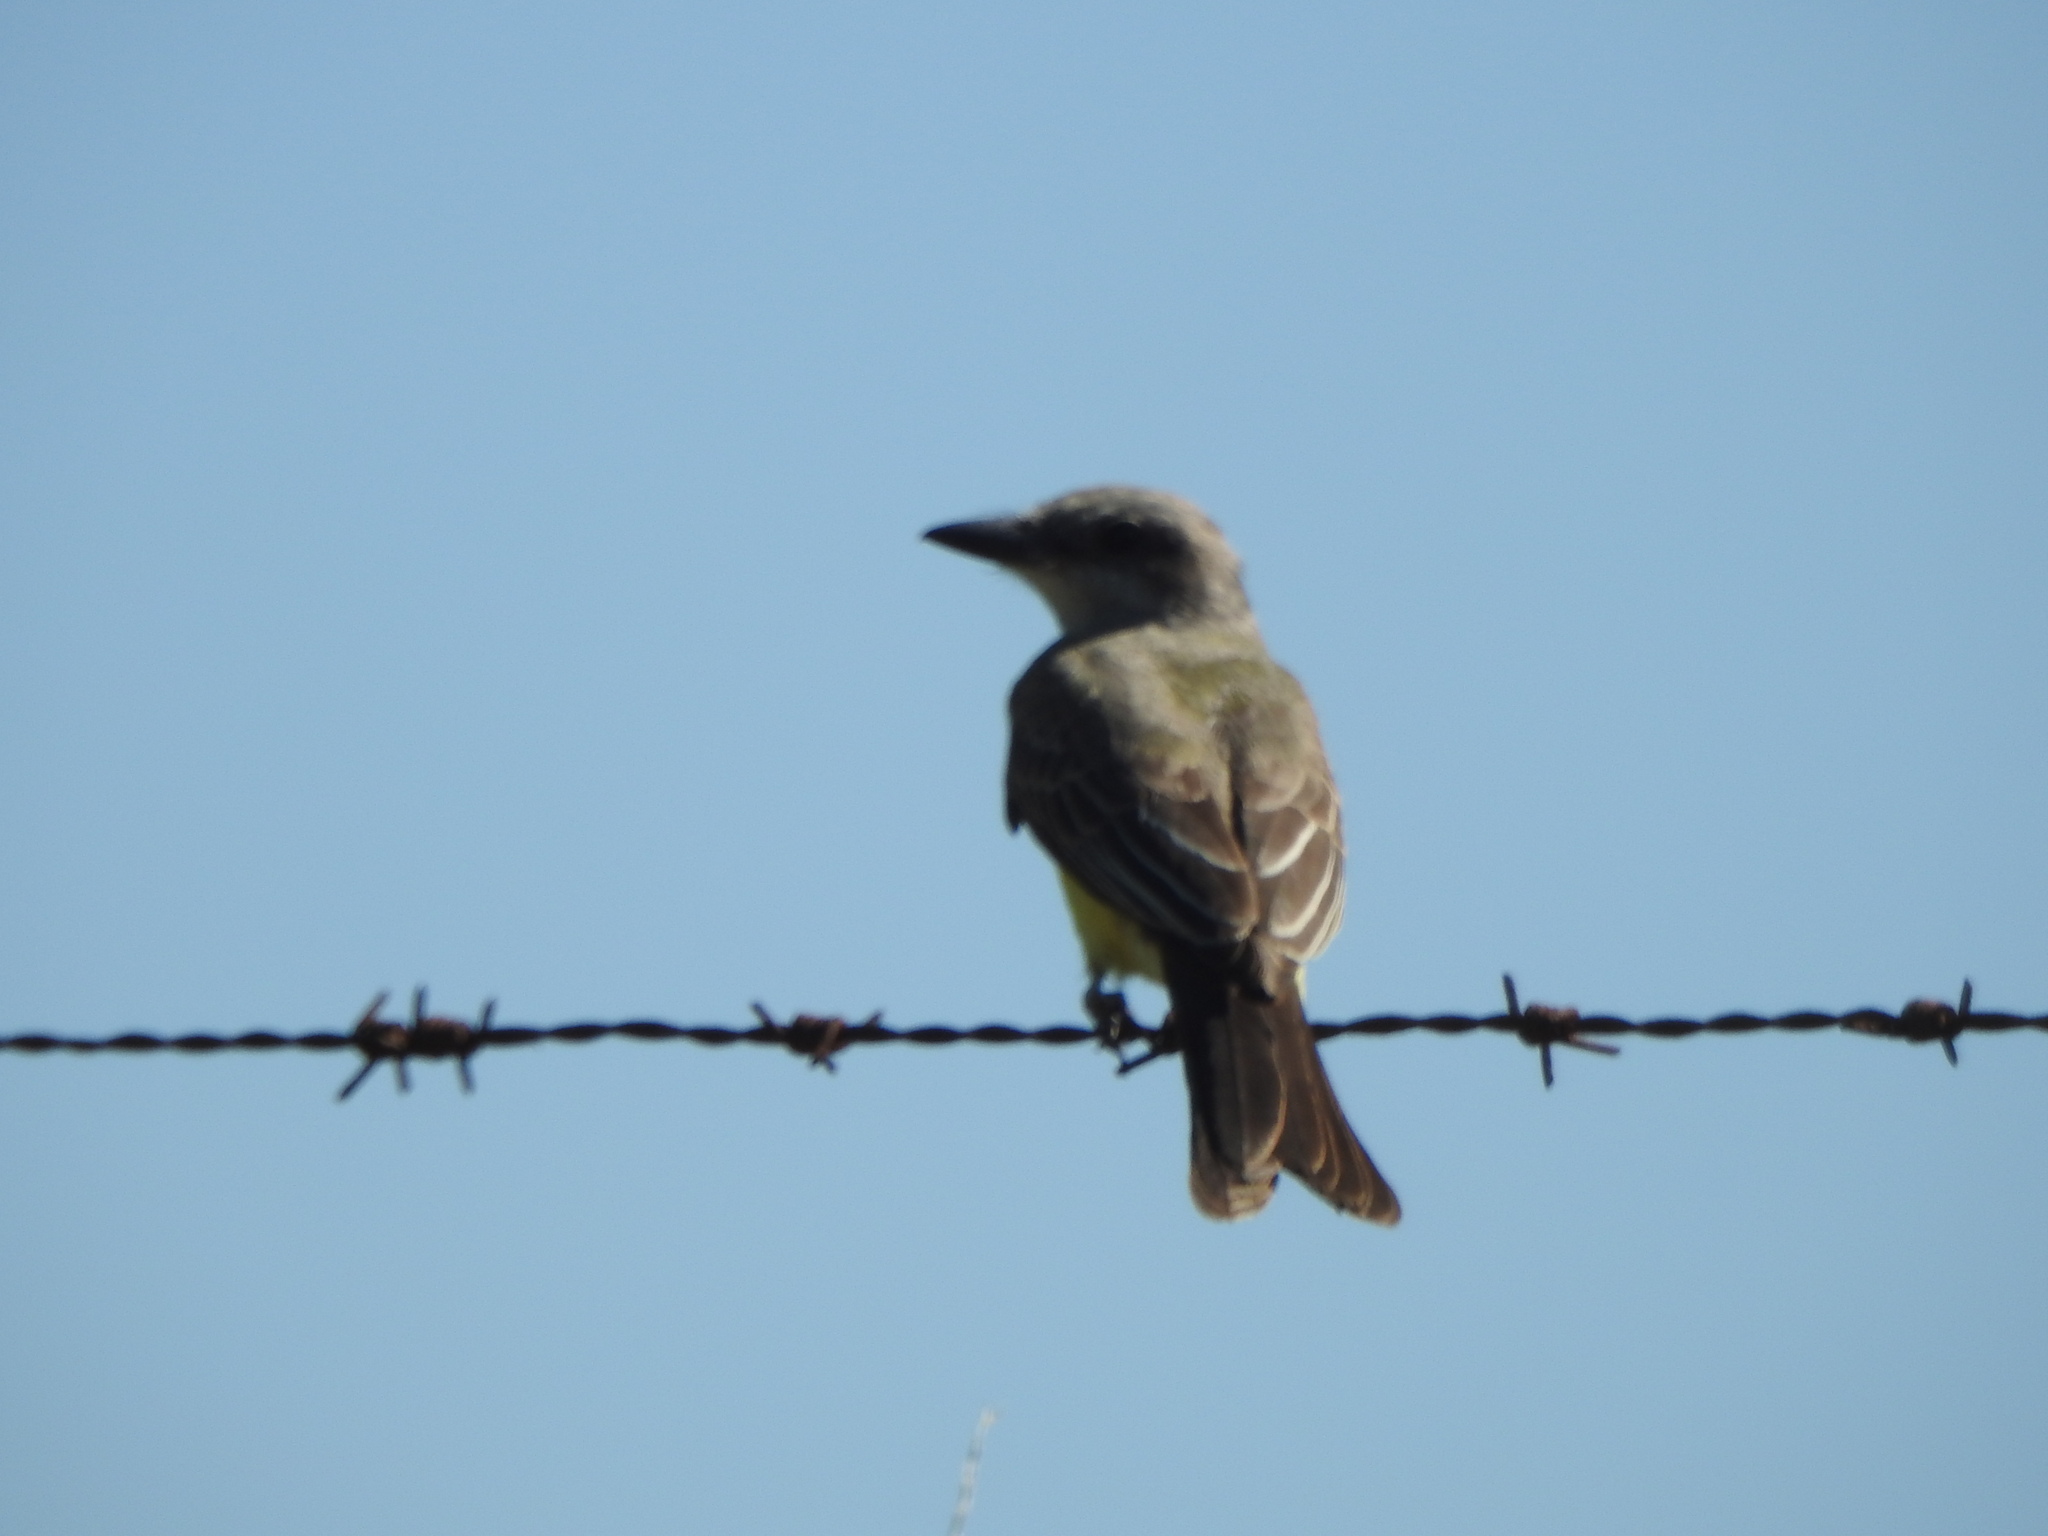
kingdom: Animalia
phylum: Chordata
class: Aves
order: Passeriformes
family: Tyrannidae
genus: Tyrannus
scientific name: Tyrannus melancholicus
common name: Tropical kingbird
